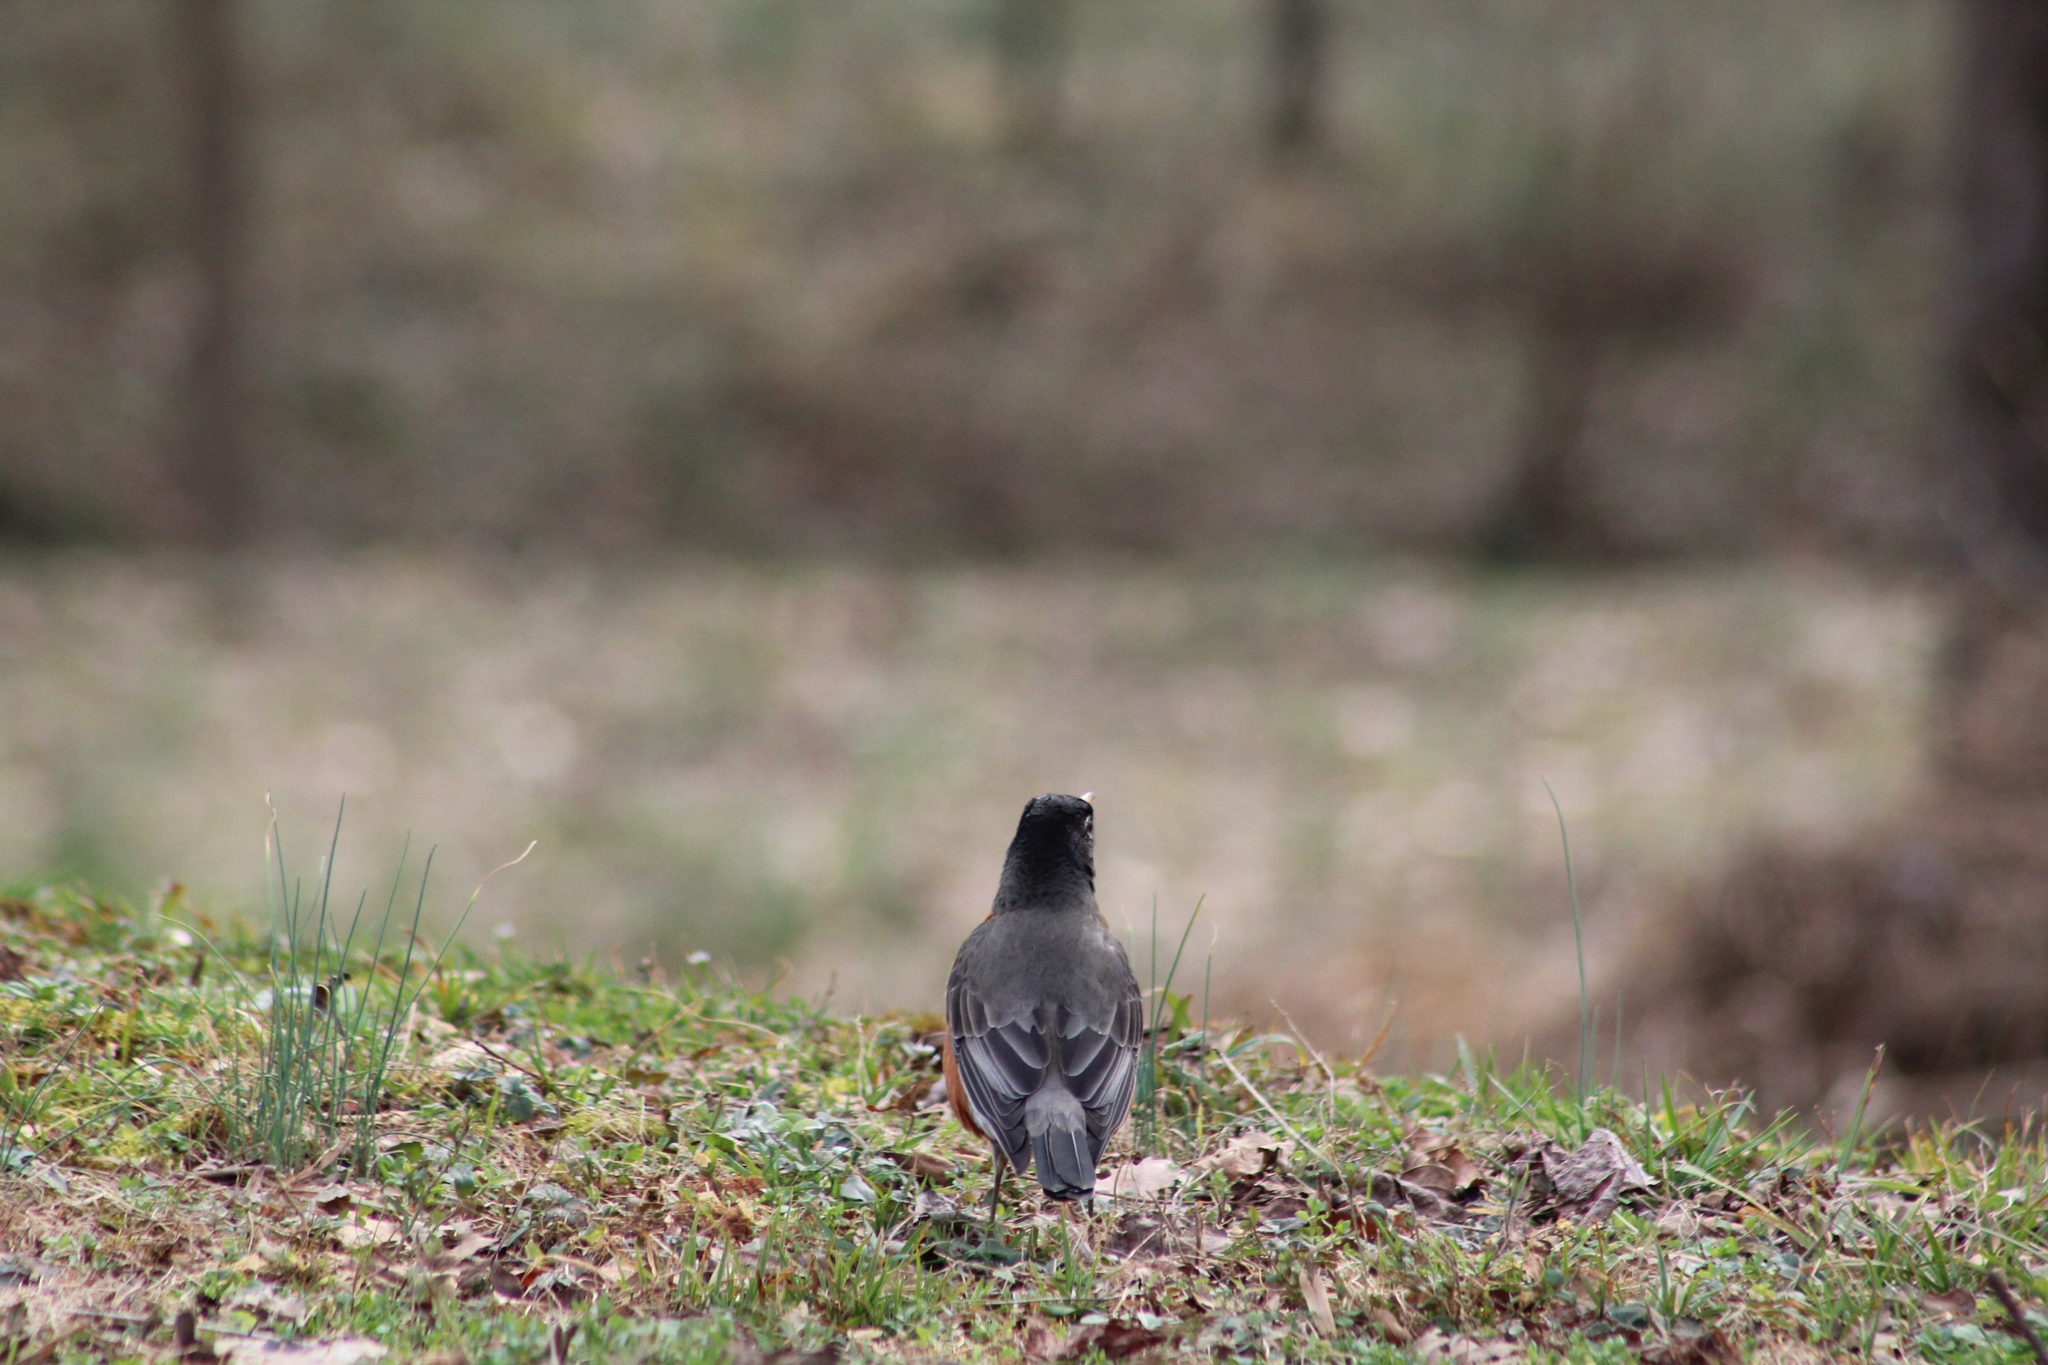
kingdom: Animalia
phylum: Chordata
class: Aves
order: Passeriformes
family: Turdidae
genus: Turdus
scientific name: Turdus migratorius
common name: American robin
